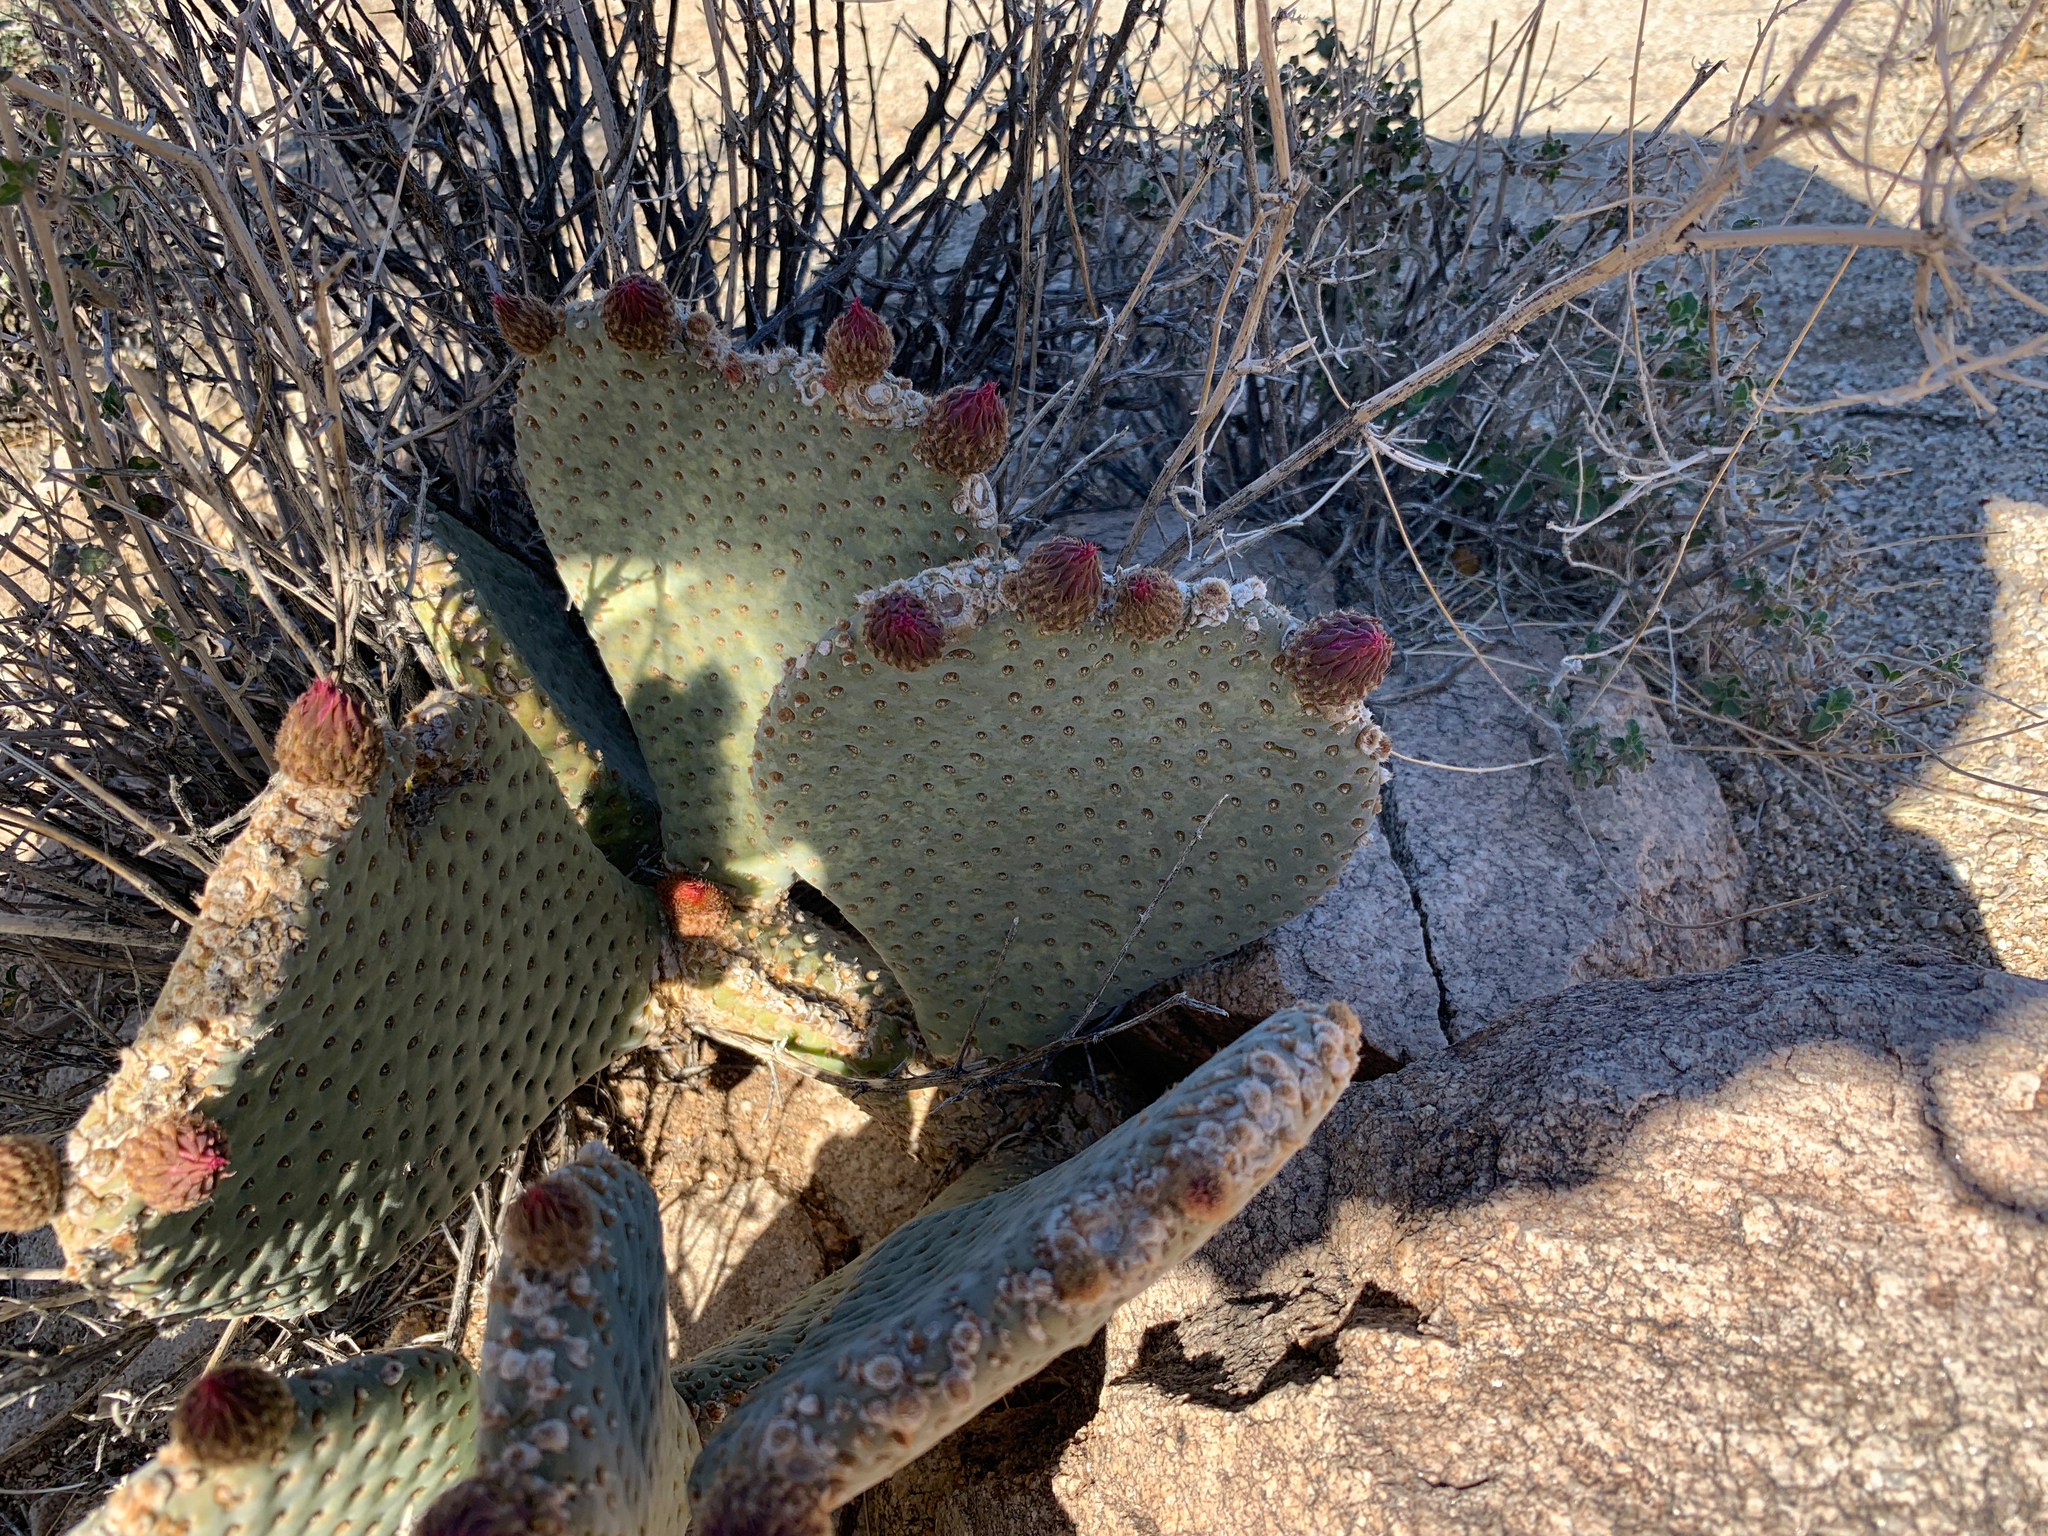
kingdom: Plantae
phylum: Tracheophyta
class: Magnoliopsida
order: Caryophyllales
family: Cactaceae
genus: Opuntia
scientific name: Opuntia basilaris
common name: Beavertail prickly-pear
